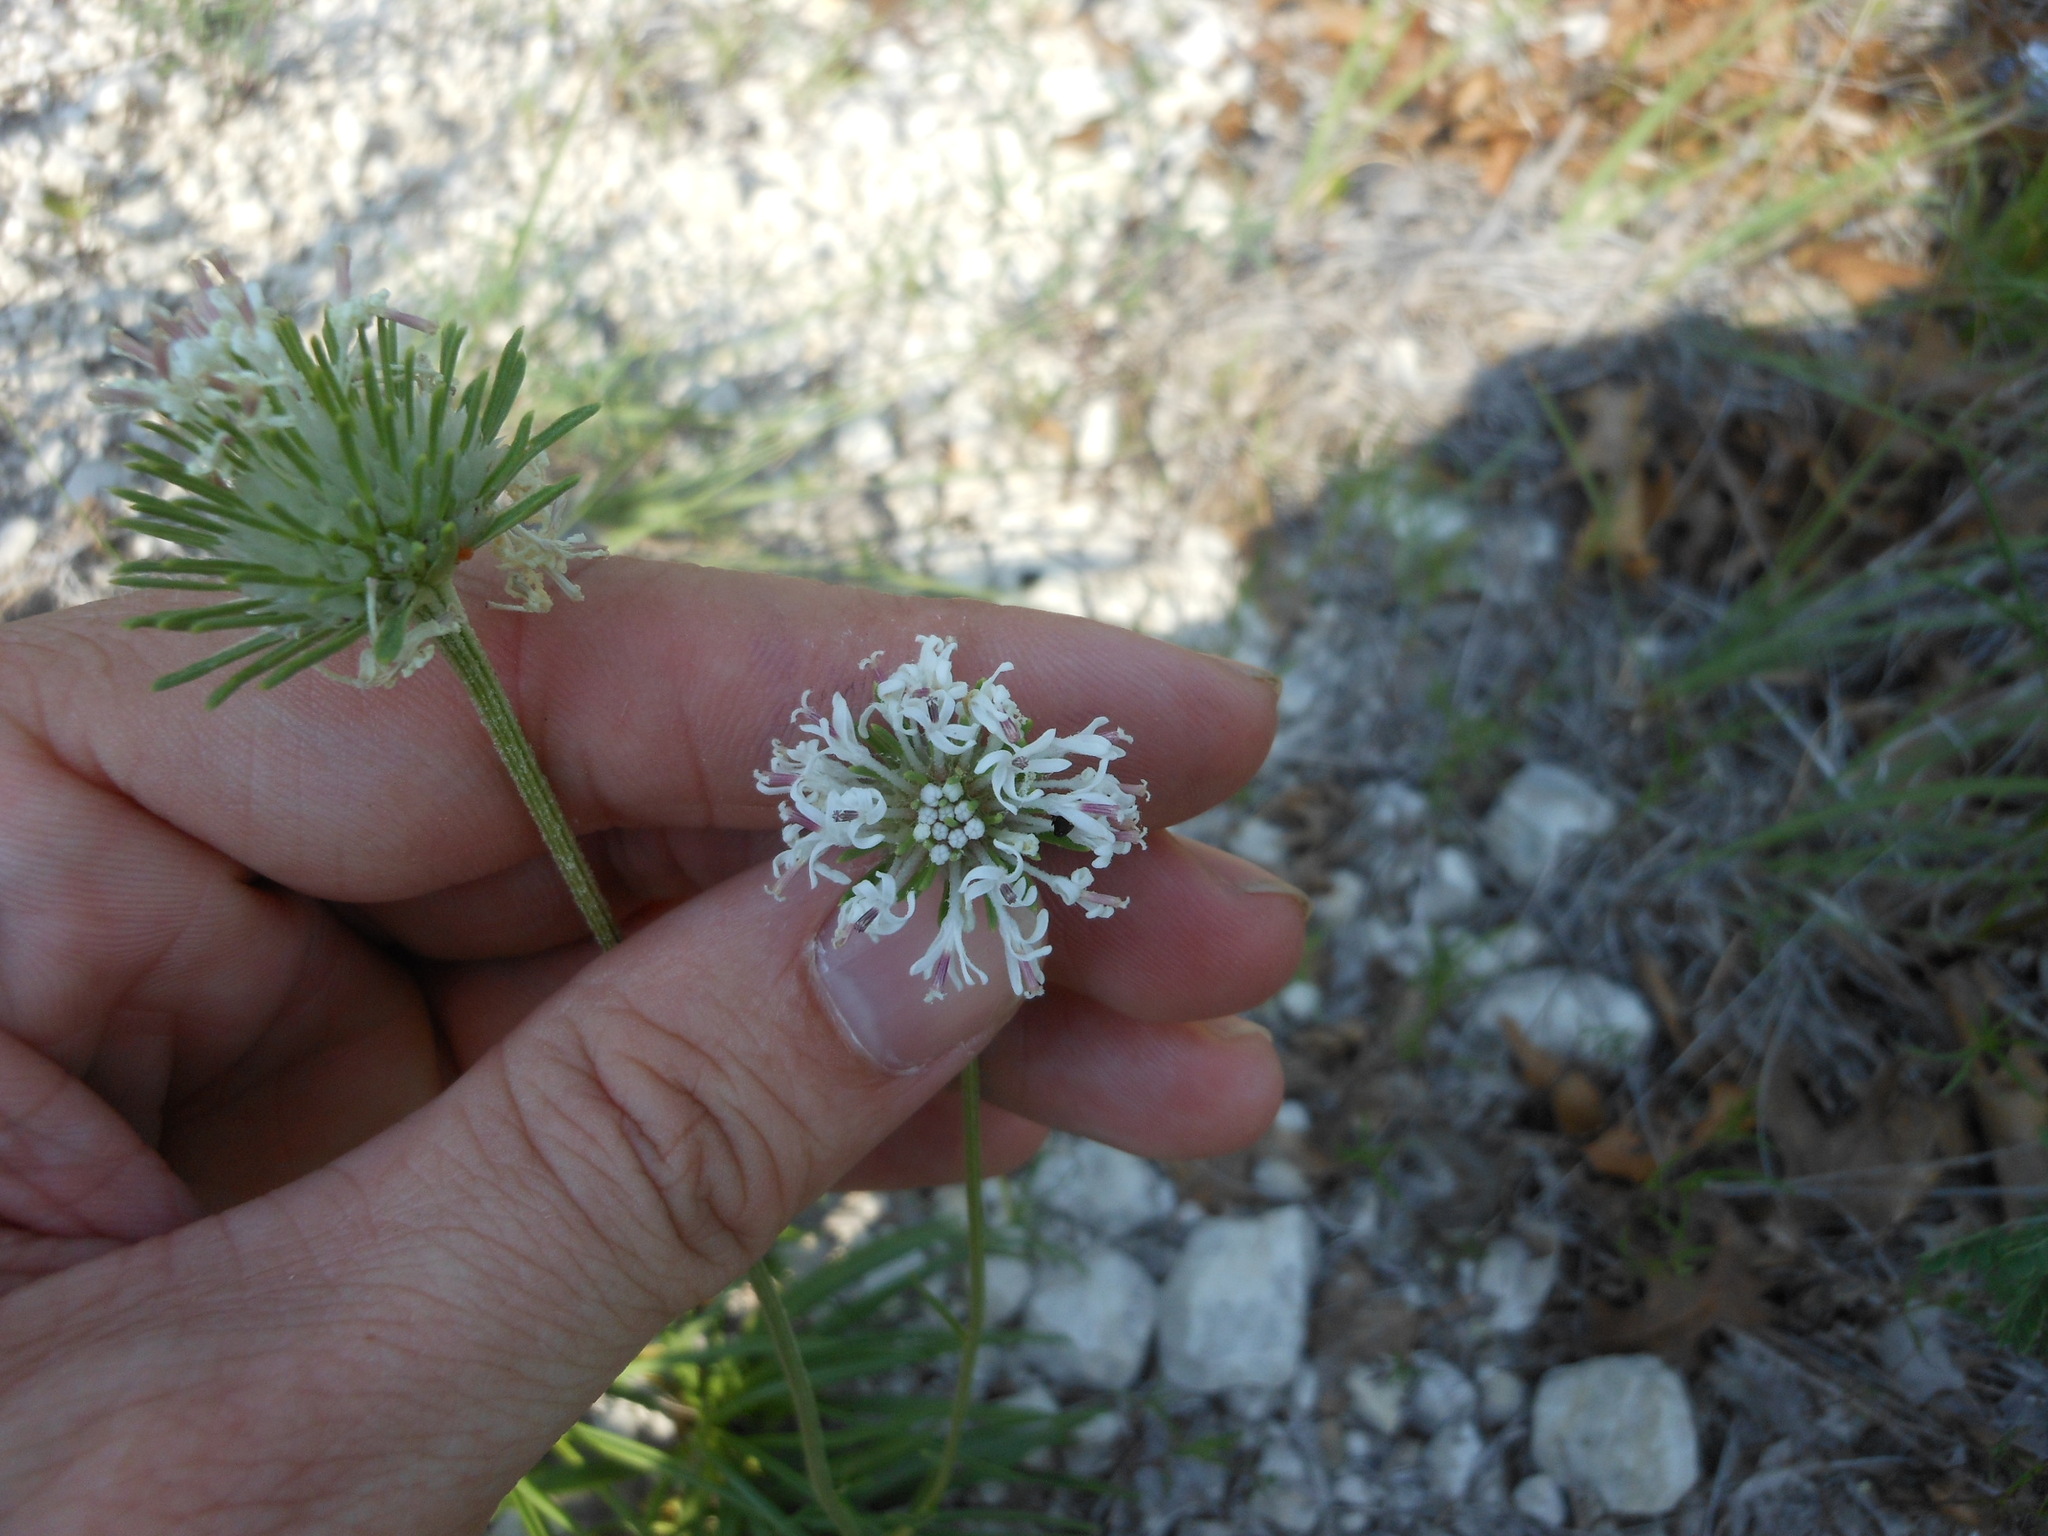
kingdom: Plantae
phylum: Tracheophyta
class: Magnoliopsida
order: Asterales
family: Asteraceae
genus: Marshallia
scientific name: Marshallia caespitosa
